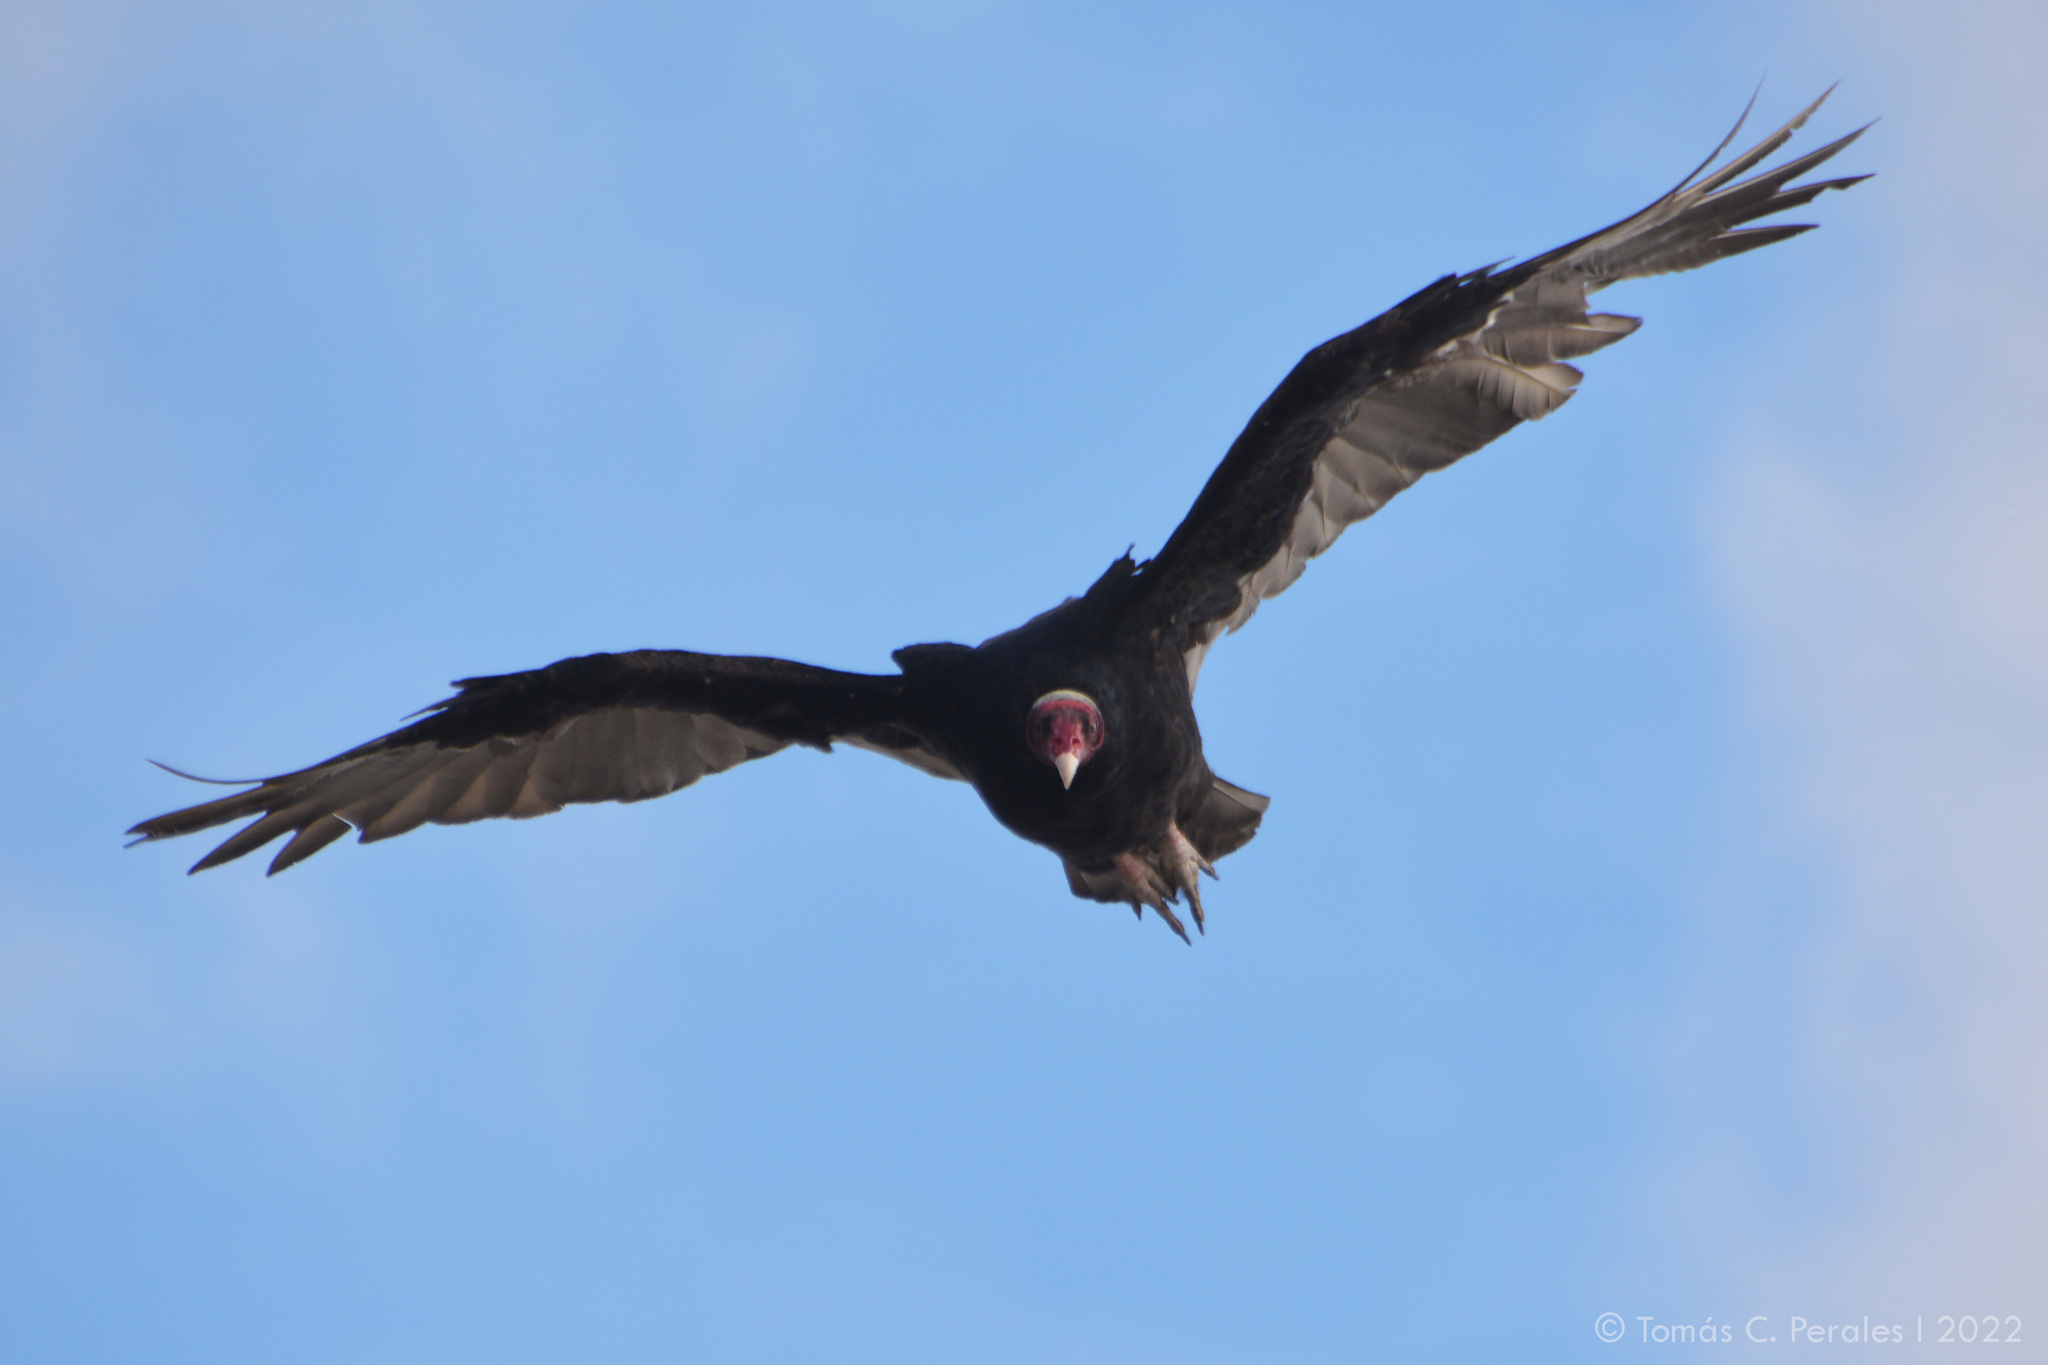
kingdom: Animalia
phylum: Chordata
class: Aves
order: Accipitriformes
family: Cathartidae
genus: Cathartes
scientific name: Cathartes aura
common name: Turkey vulture
